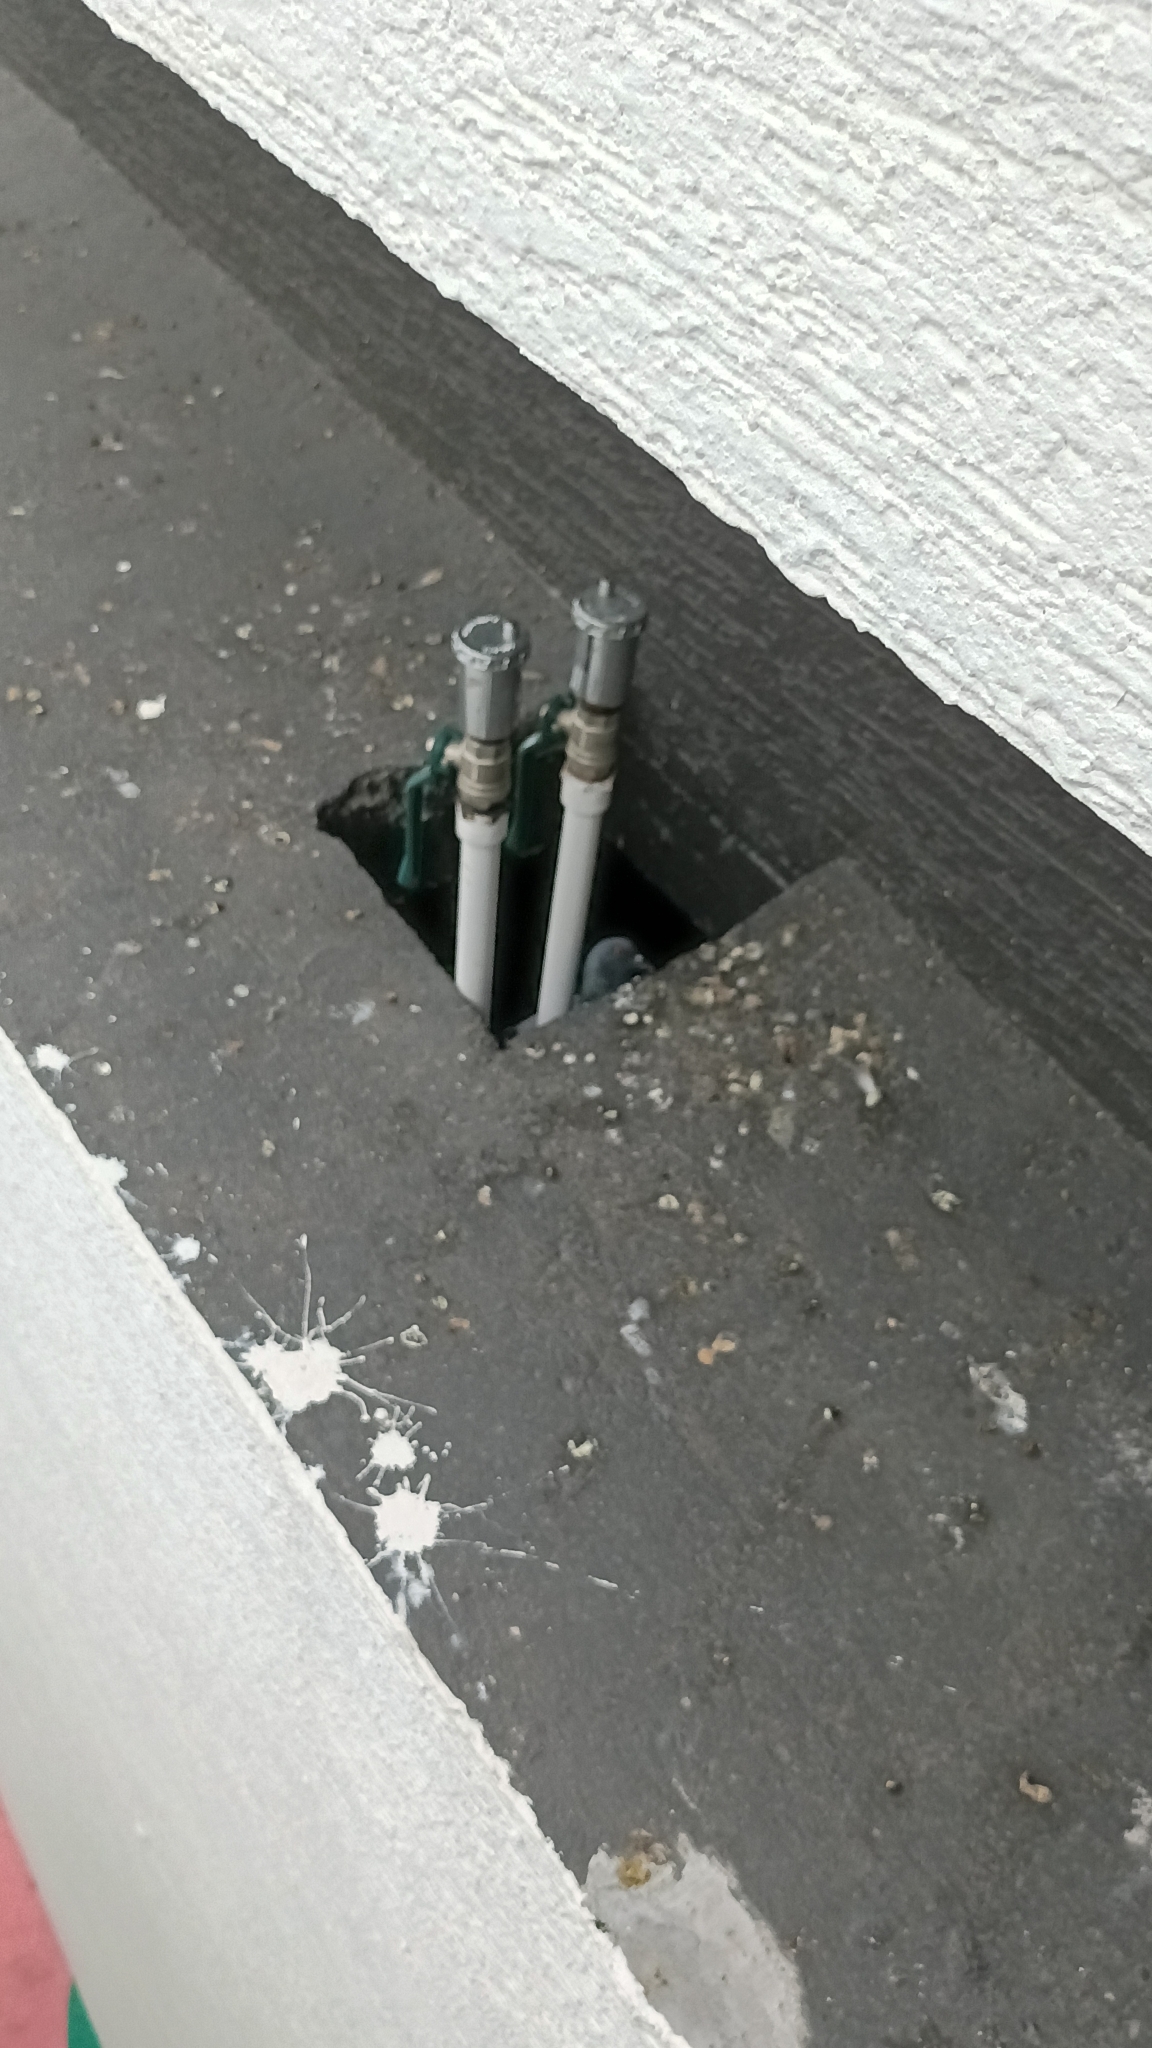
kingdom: Animalia
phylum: Chordata
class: Aves
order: Columbiformes
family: Columbidae
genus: Columba
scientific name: Columba livia
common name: Rock pigeon
